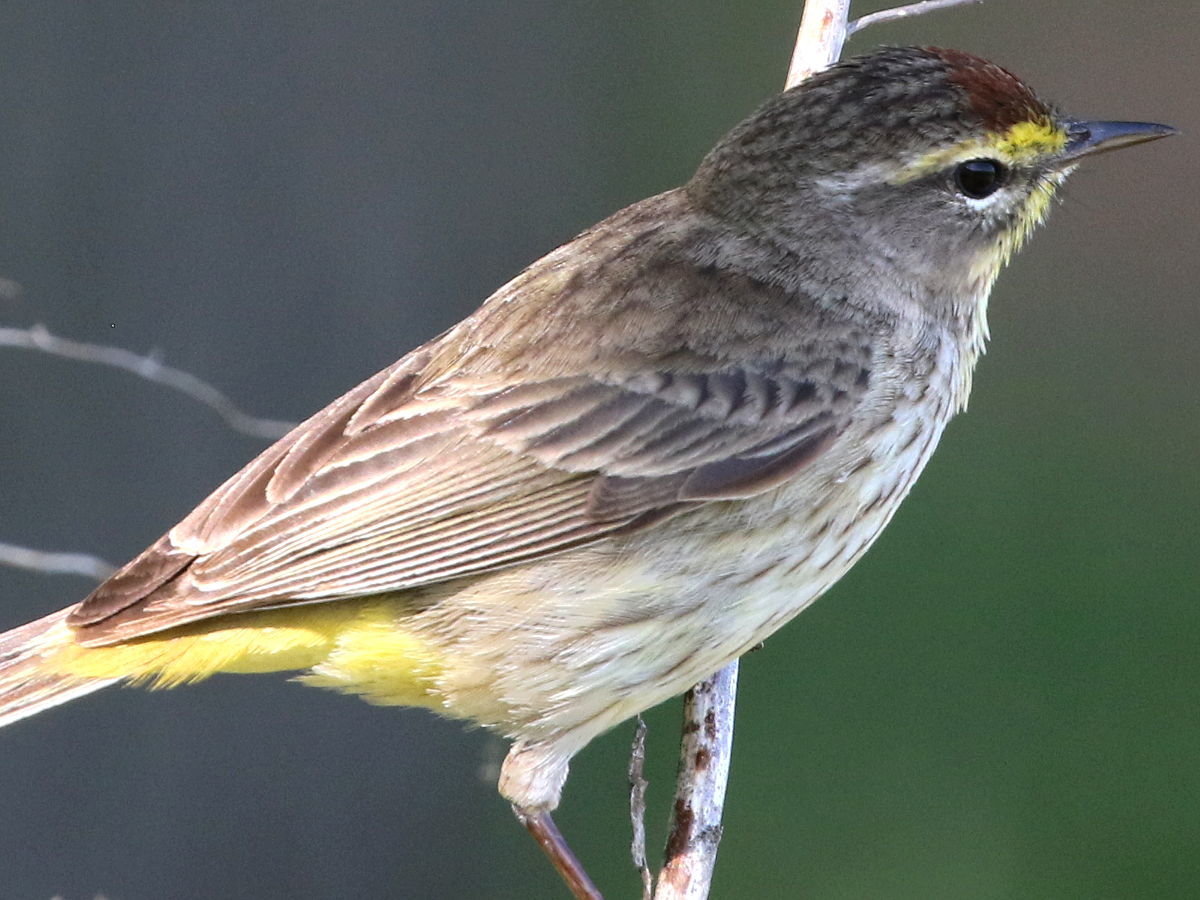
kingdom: Animalia
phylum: Chordata
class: Aves
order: Passeriformes
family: Parulidae
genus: Setophaga
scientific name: Setophaga palmarum
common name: Palm warbler
